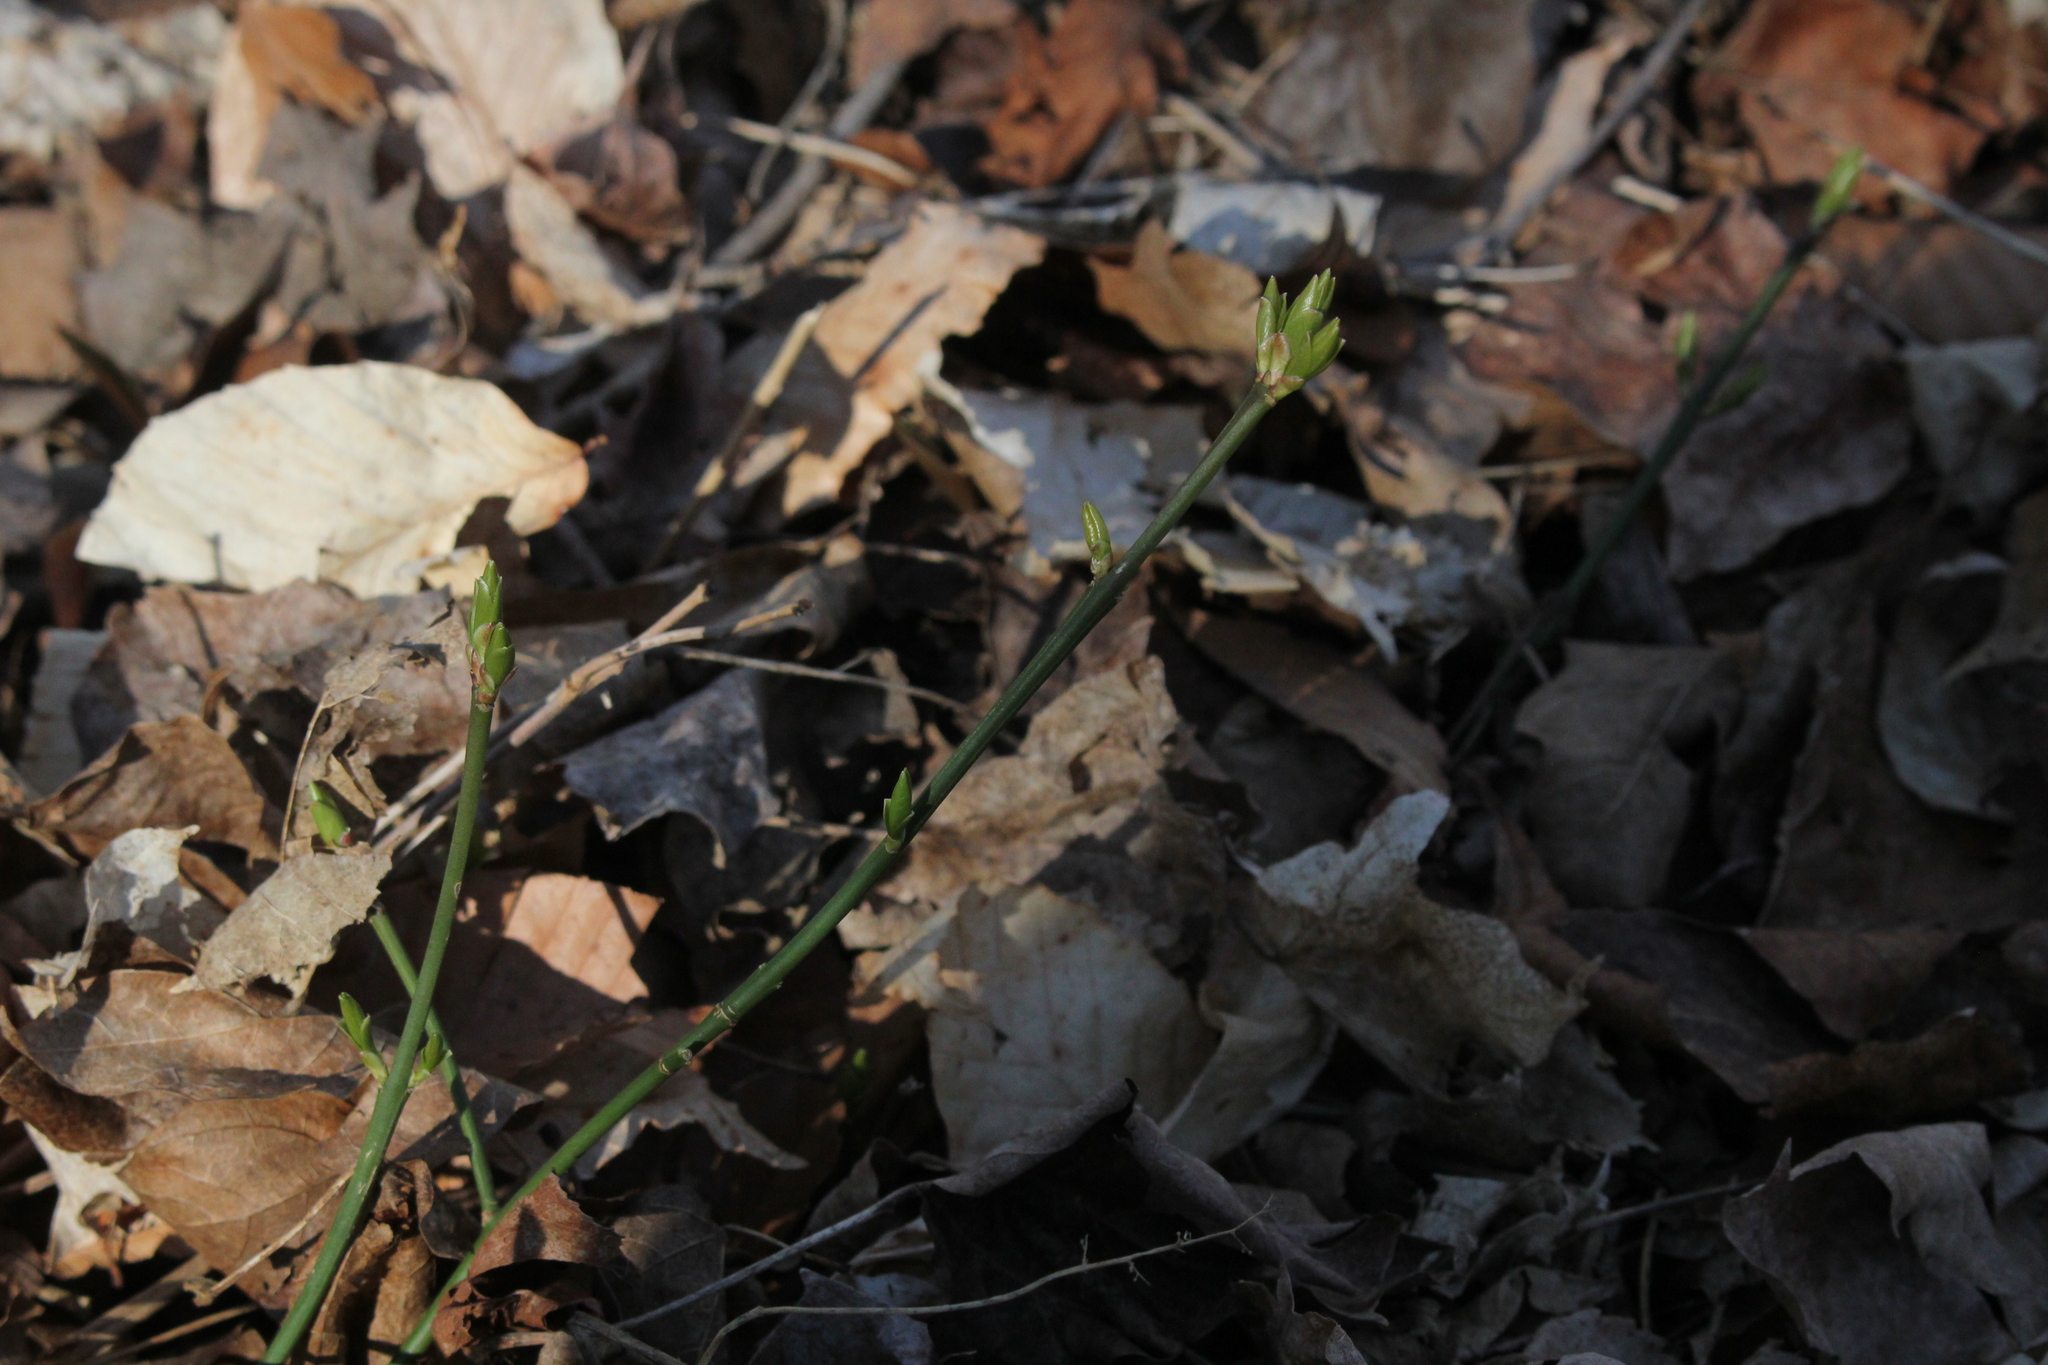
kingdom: Plantae
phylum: Tracheophyta
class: Magnoliopsida
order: Celastrales
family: Celastraceae
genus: Euonymus
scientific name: Euonymus obovatus
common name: Running strawberry-bush
